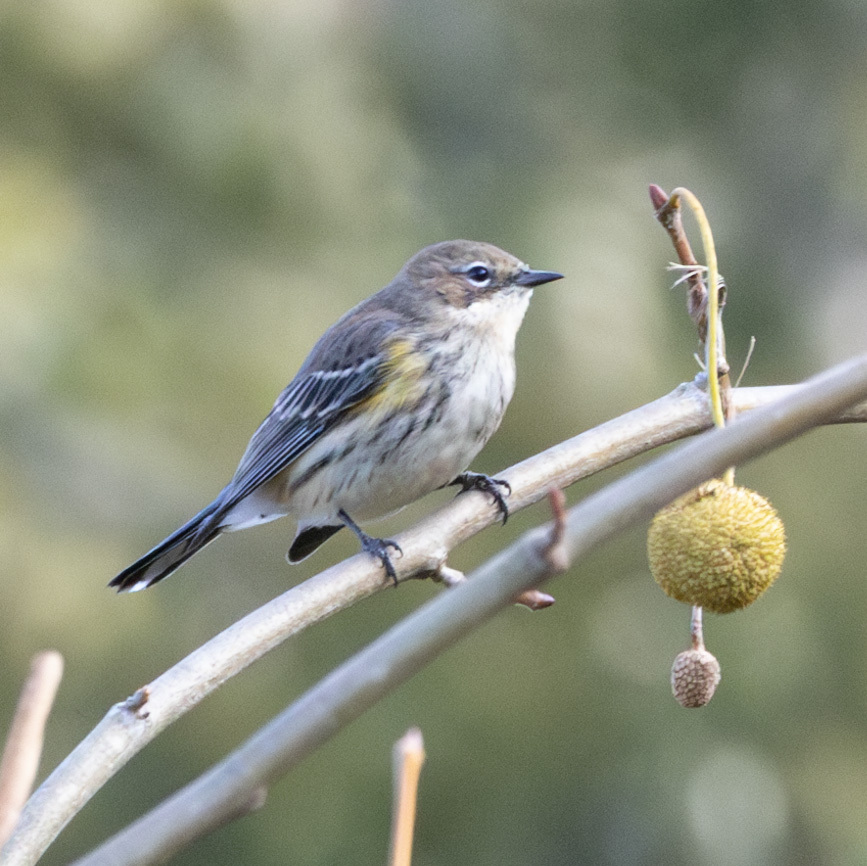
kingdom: Animalia
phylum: Chordata
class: Aves
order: Passeriformes
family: Parulidae
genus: Setophaga
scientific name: Setophaga coronata
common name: Myrtle warbler
